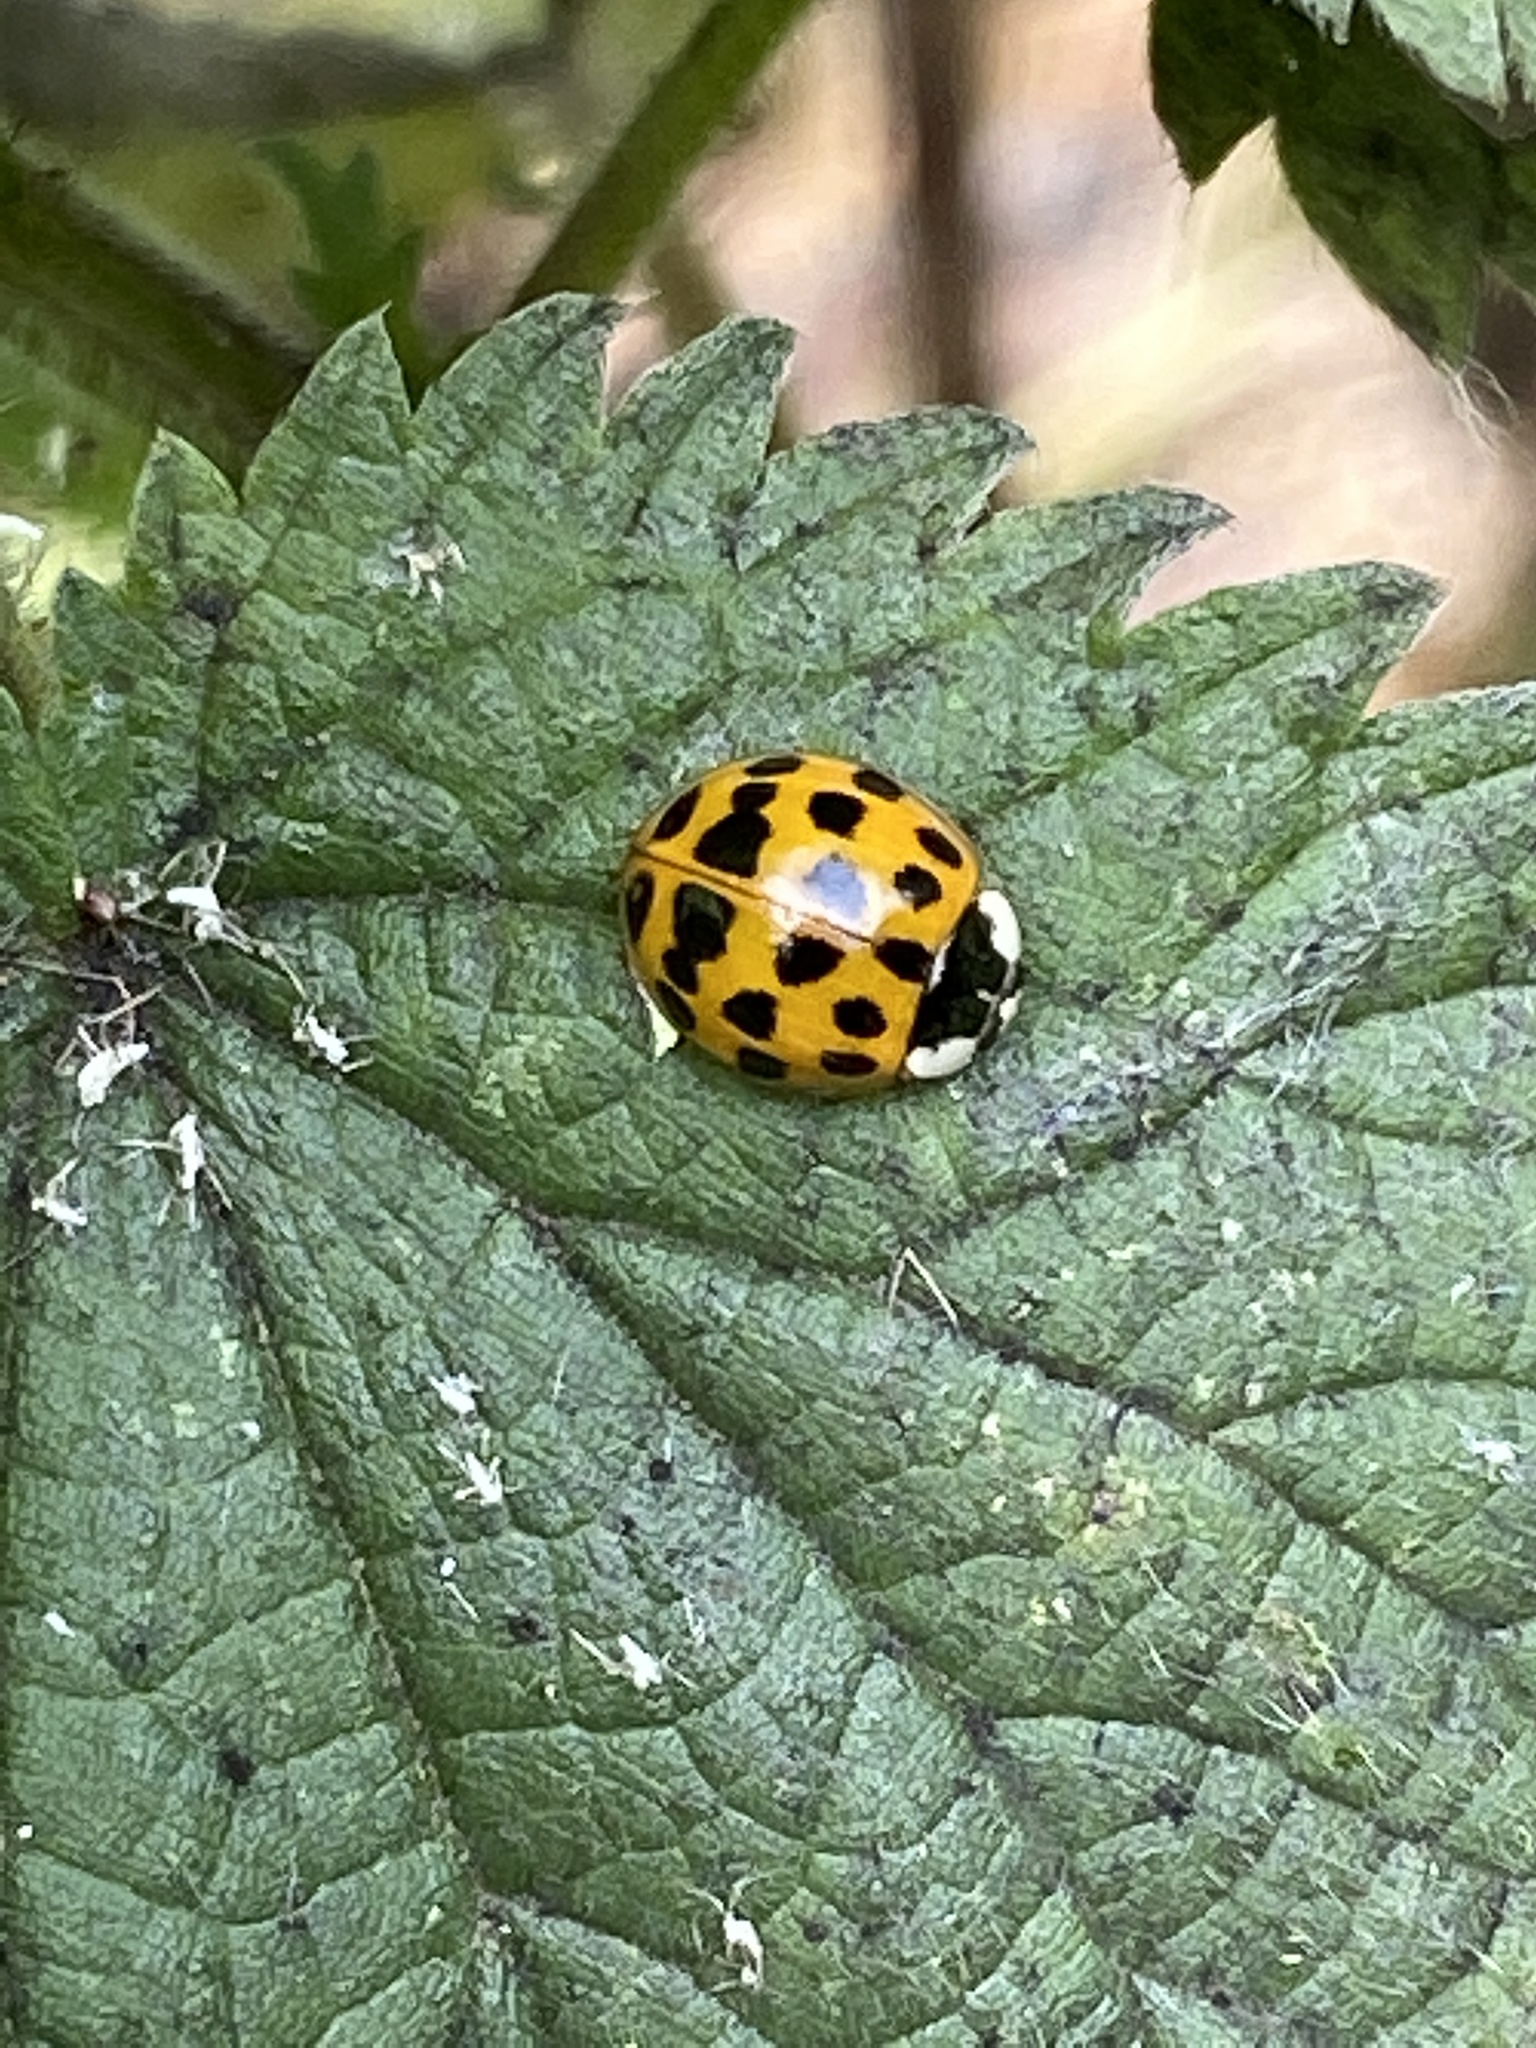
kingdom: Animalia
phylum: Arthropoda
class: Insecta
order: Coleoptera
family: Coccinellidae
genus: Harmonia
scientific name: Harmonia axyridis
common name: Harlequin ladybird
